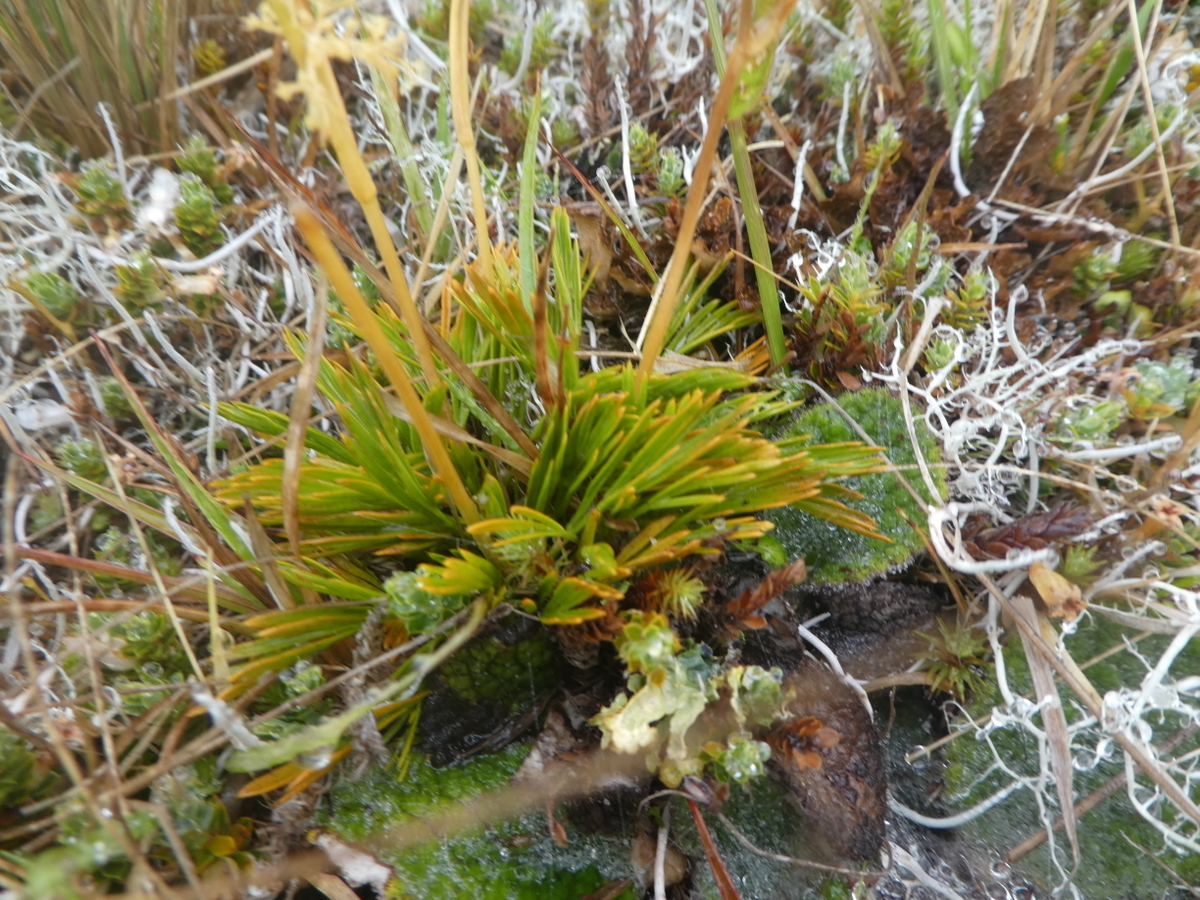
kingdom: Plantae
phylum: Tracheophyta
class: Magnoliopsida
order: Apiales
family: Apiaceae
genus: Aciphylla
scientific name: Aciphylla monroi
